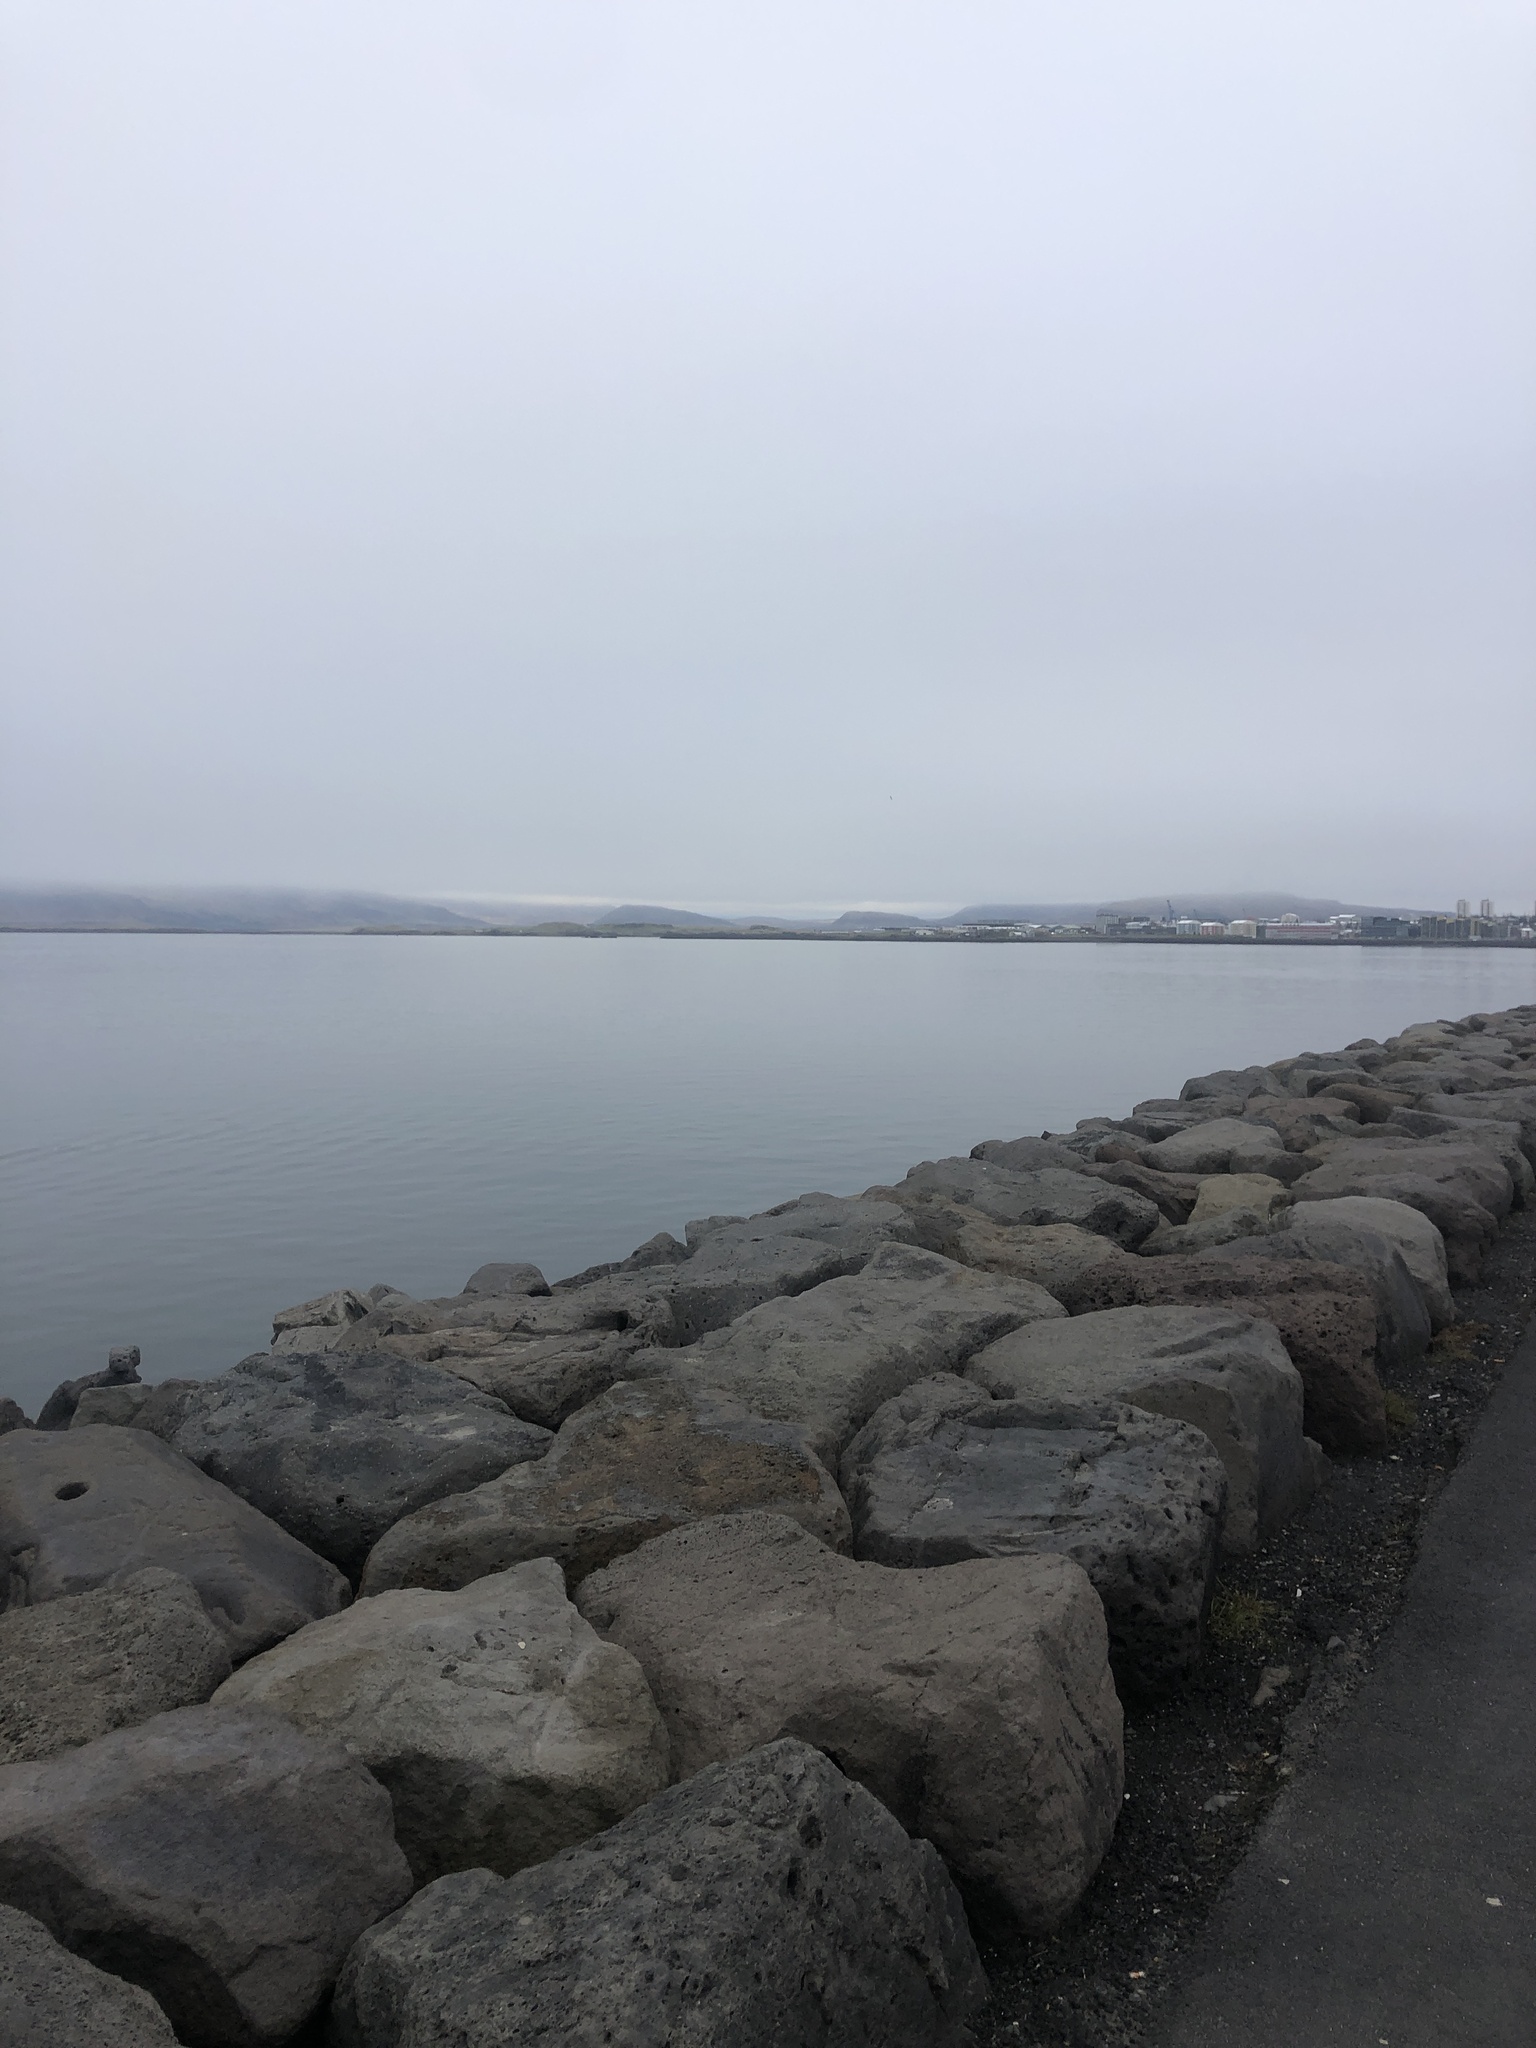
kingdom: Animalia
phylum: Chordata
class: Aves
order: Anseriformes
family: Anatidae
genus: Somateria
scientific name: Somateria mollissima
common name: Common eider
